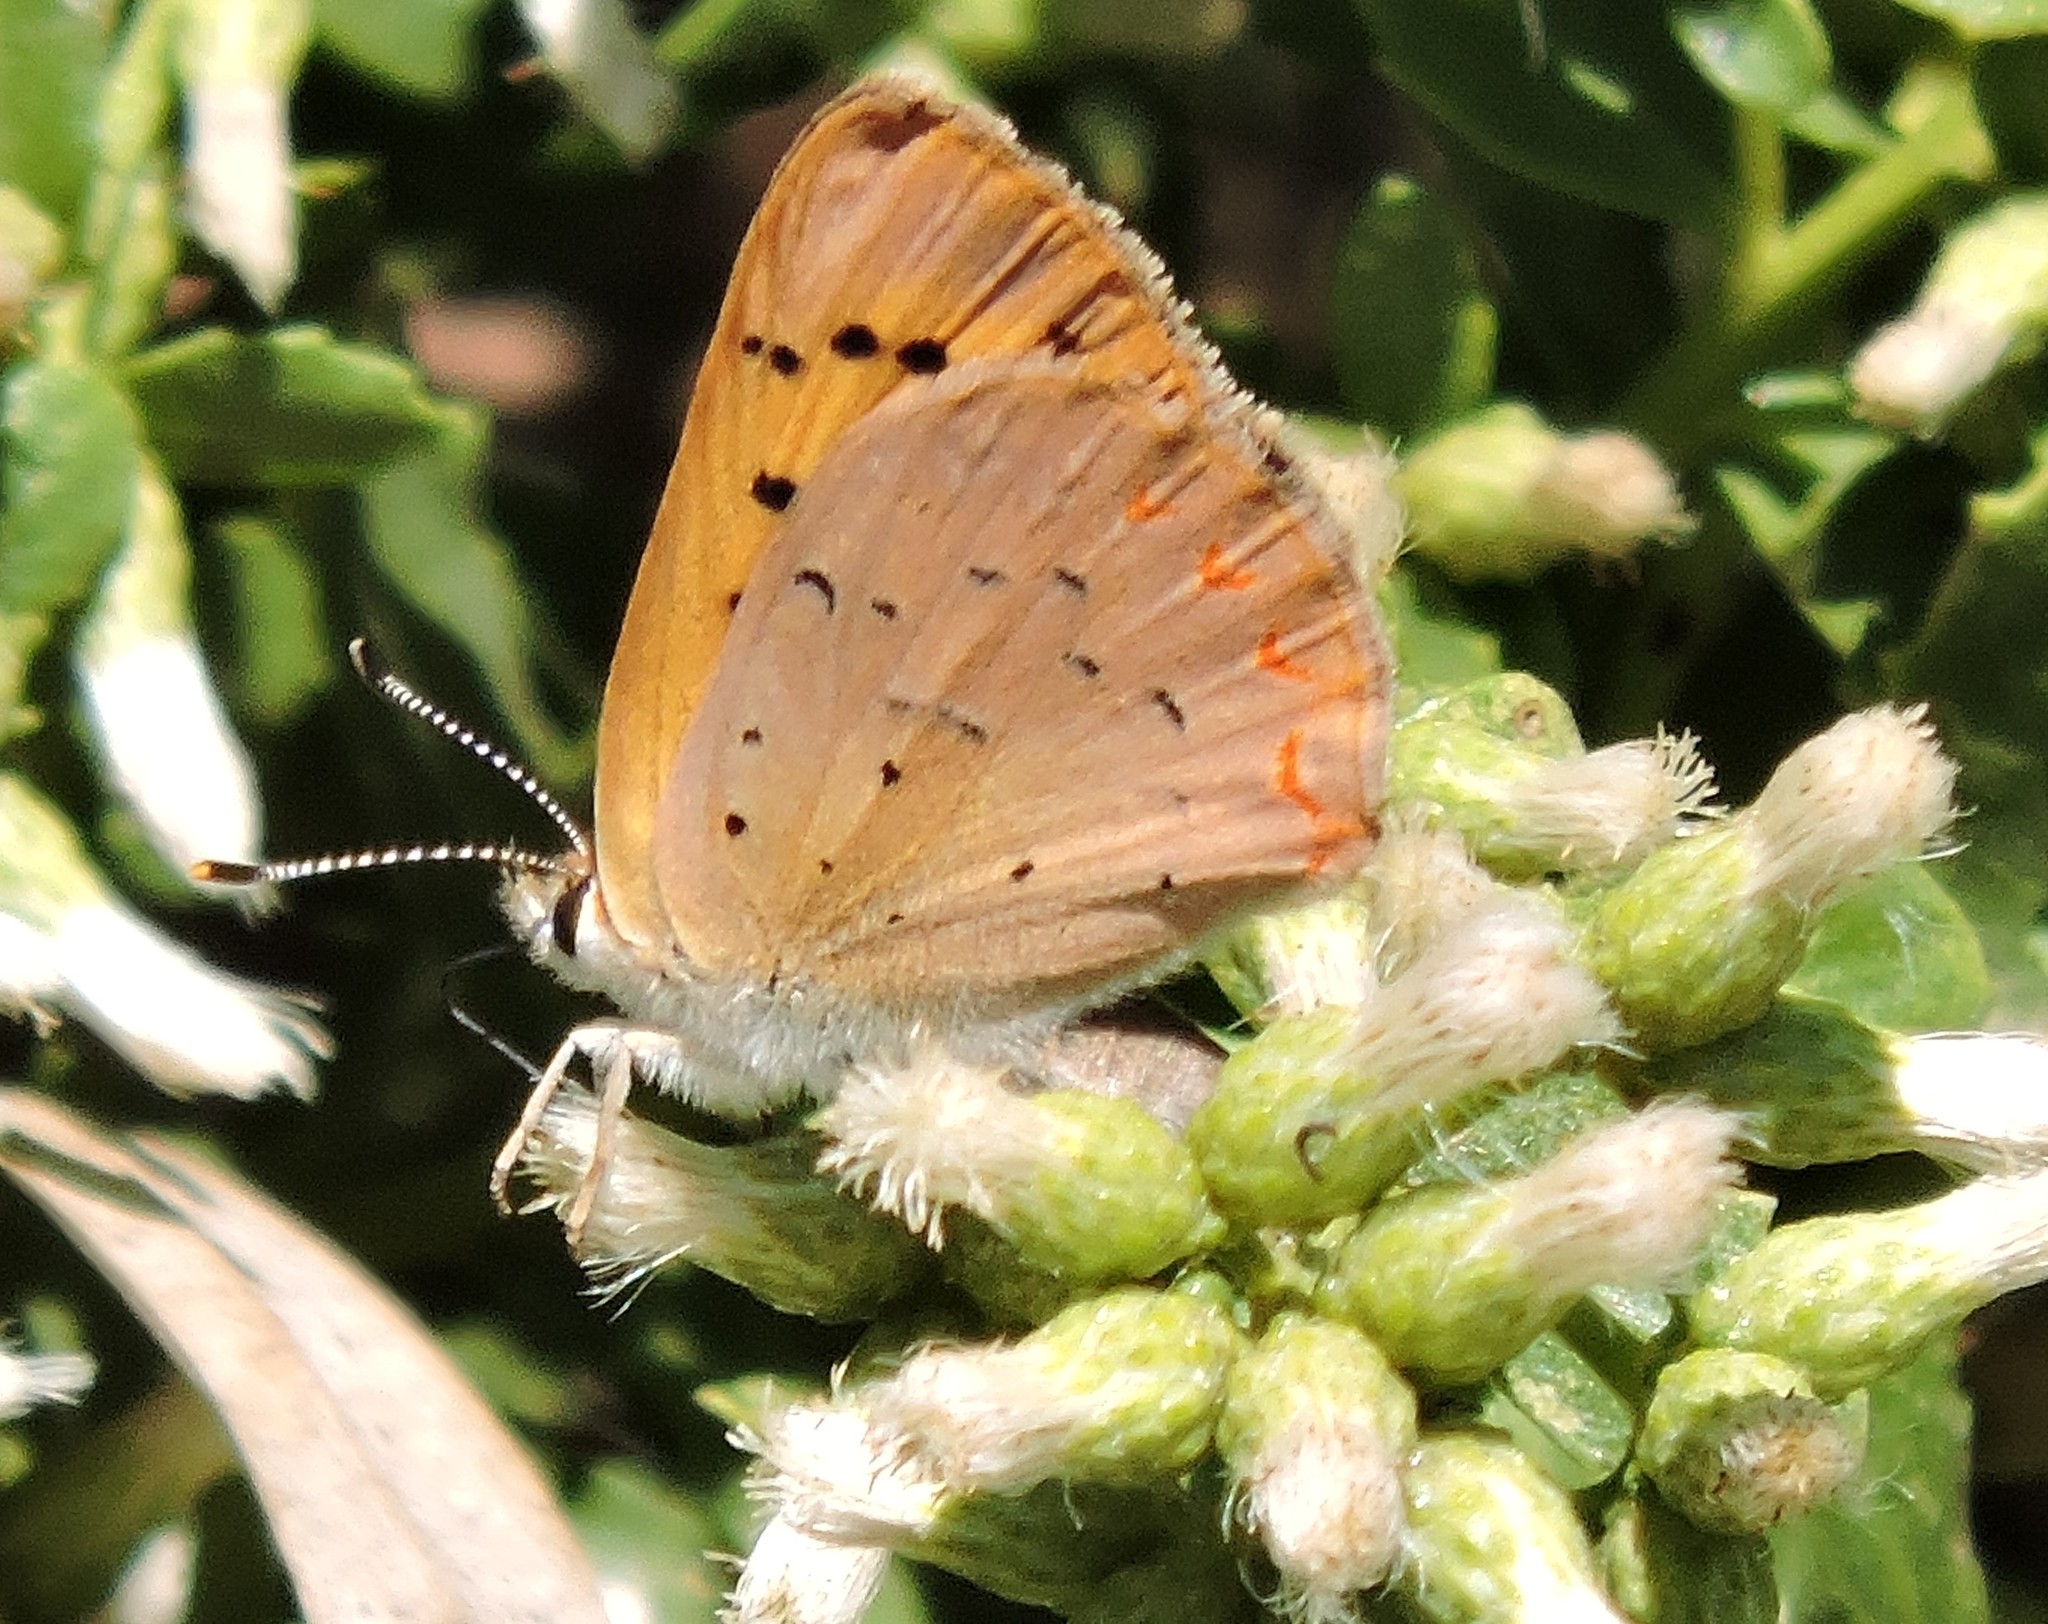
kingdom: Animalia
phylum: Arthropoda
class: Insecta
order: Lepidoptera
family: Lycaenidae
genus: Tharsalea
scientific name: Tharsalea helloides
